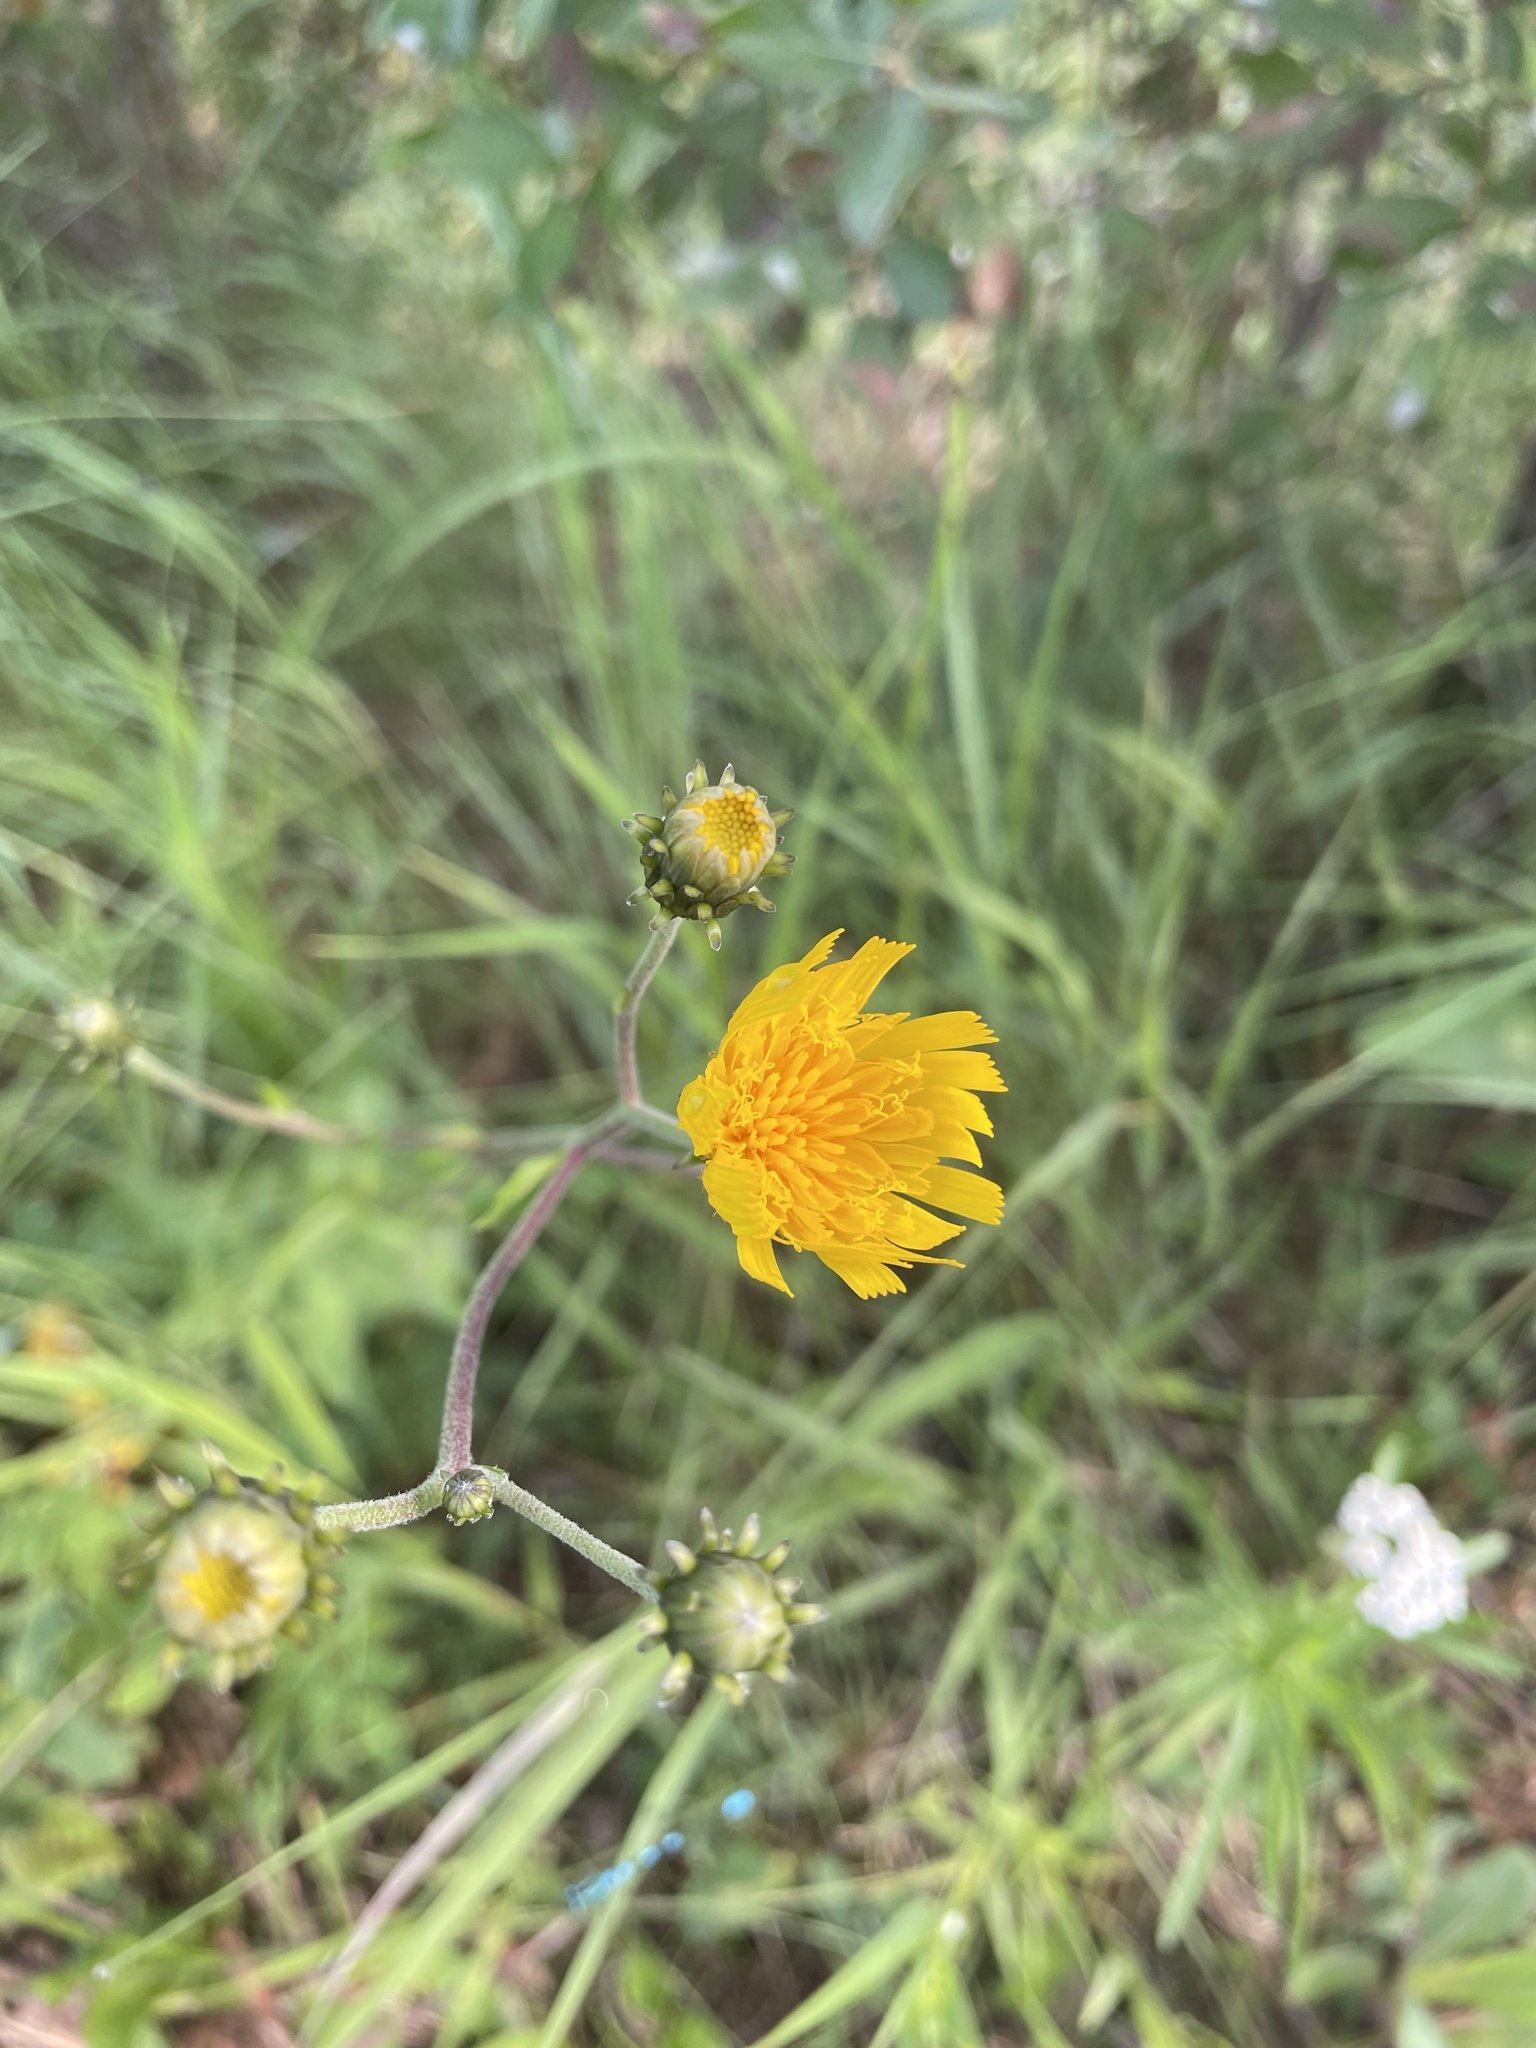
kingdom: Plantae
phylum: Tracheophyta
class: Magnoliopsida
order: Asterales
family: Asteraceae
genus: Hieracium
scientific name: Hieracium umbellatum
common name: Northern hawkweed
